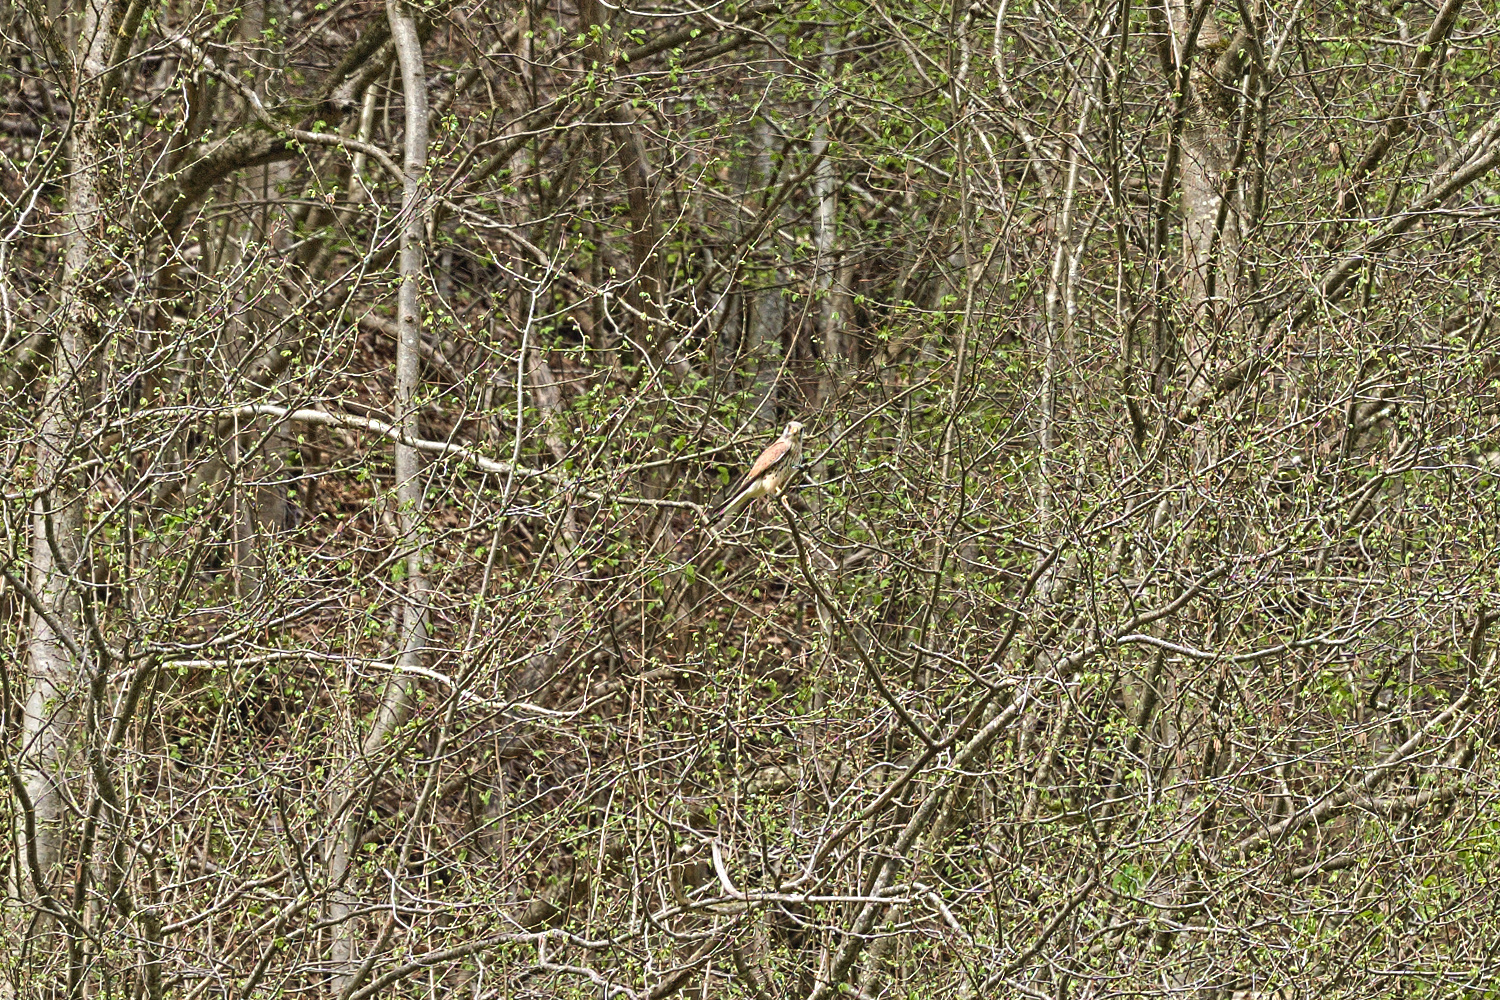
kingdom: Animalia
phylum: Chordata
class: Aves
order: Falconiformes
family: Falconidae
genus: Falco
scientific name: Falco tinnunculus
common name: Common kestrel
